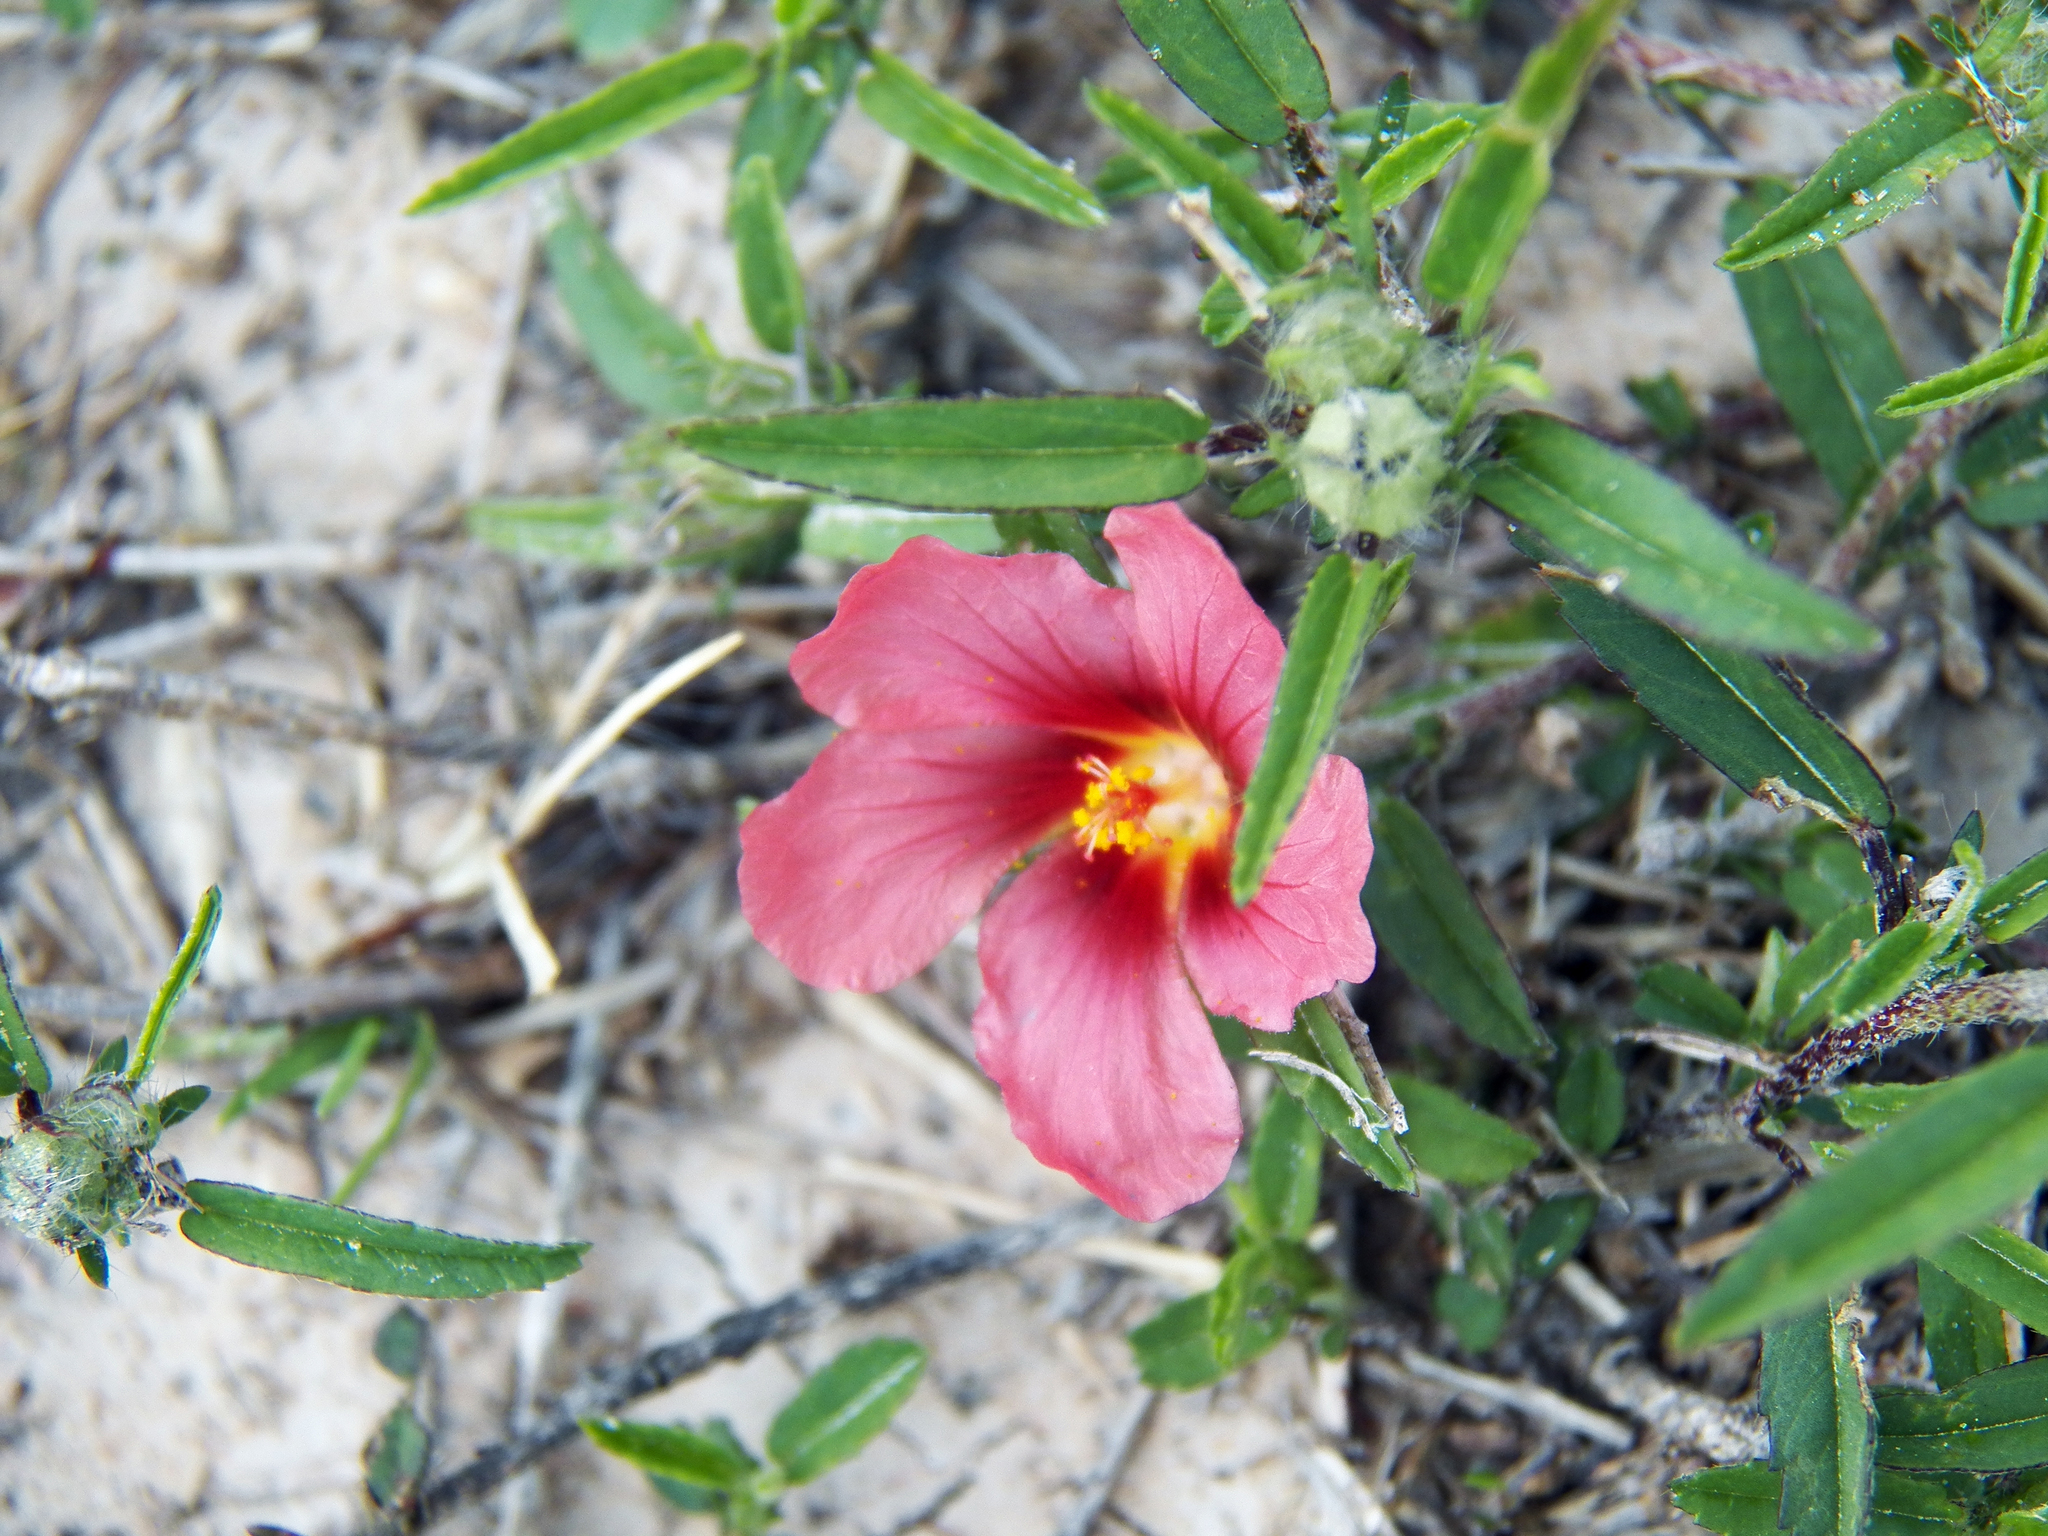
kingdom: Plantae
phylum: Tracheophyta
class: Magnoliopsida
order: Malvales
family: Malvaceae
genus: Sida
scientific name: Sida ciliaris
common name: Bracted fanpetals
